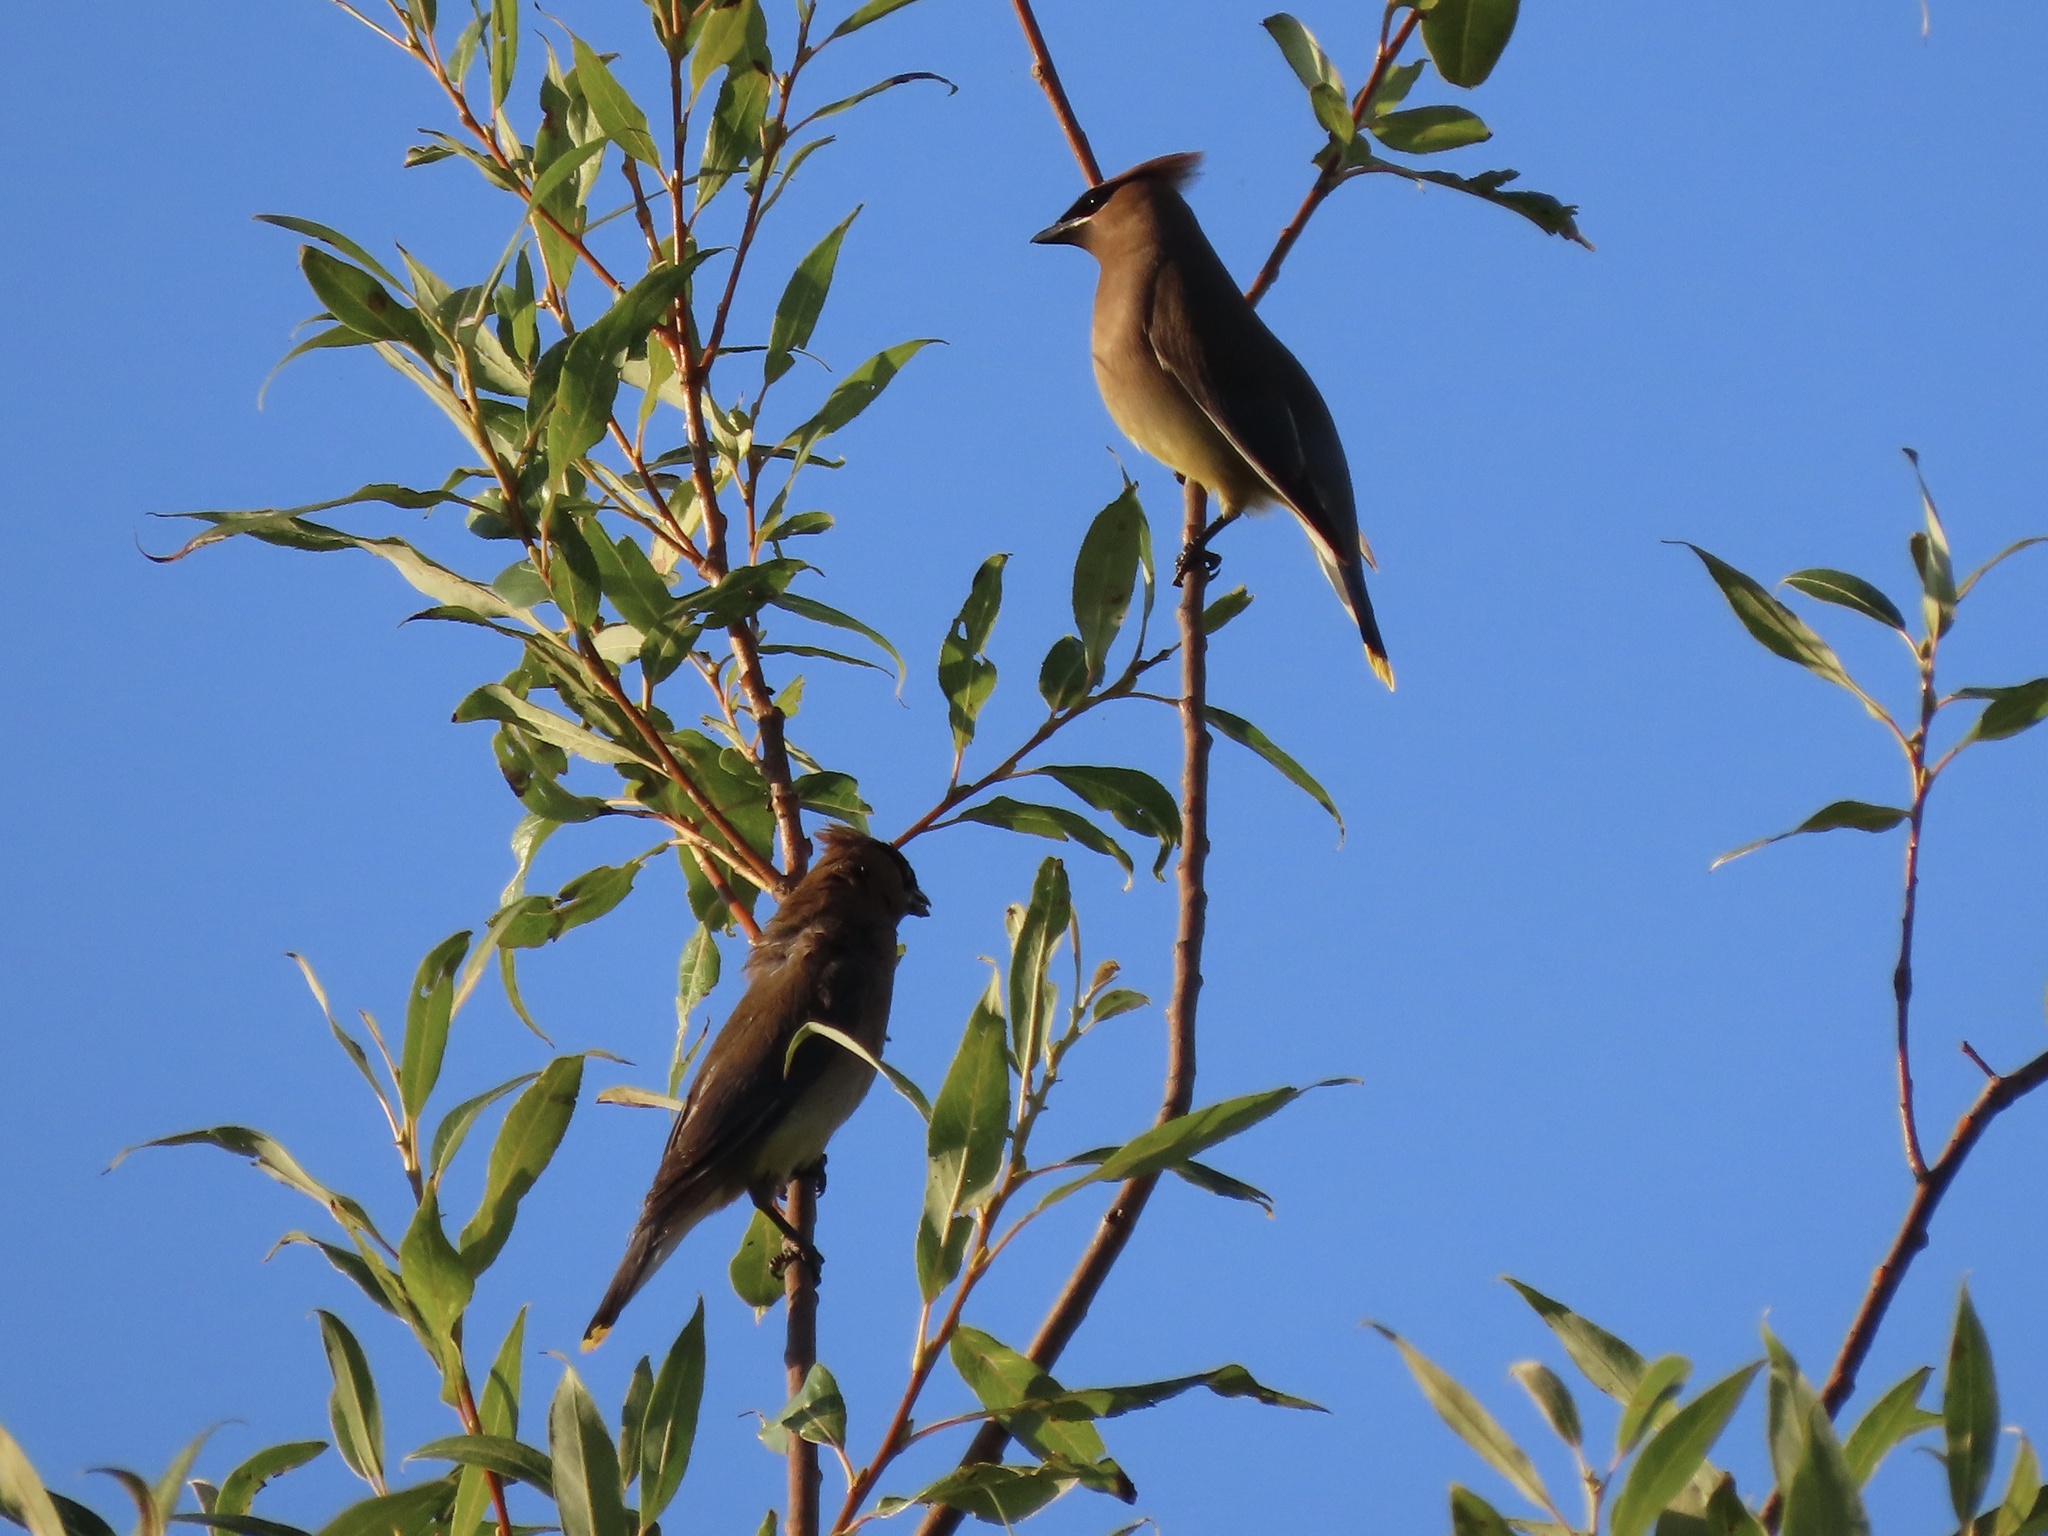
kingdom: Animalia
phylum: Chordata
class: Aves
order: Passeriformes
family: Bombycillidae
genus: Bombycilla
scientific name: Bombycilla cedrorum
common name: Cedar waxwing
